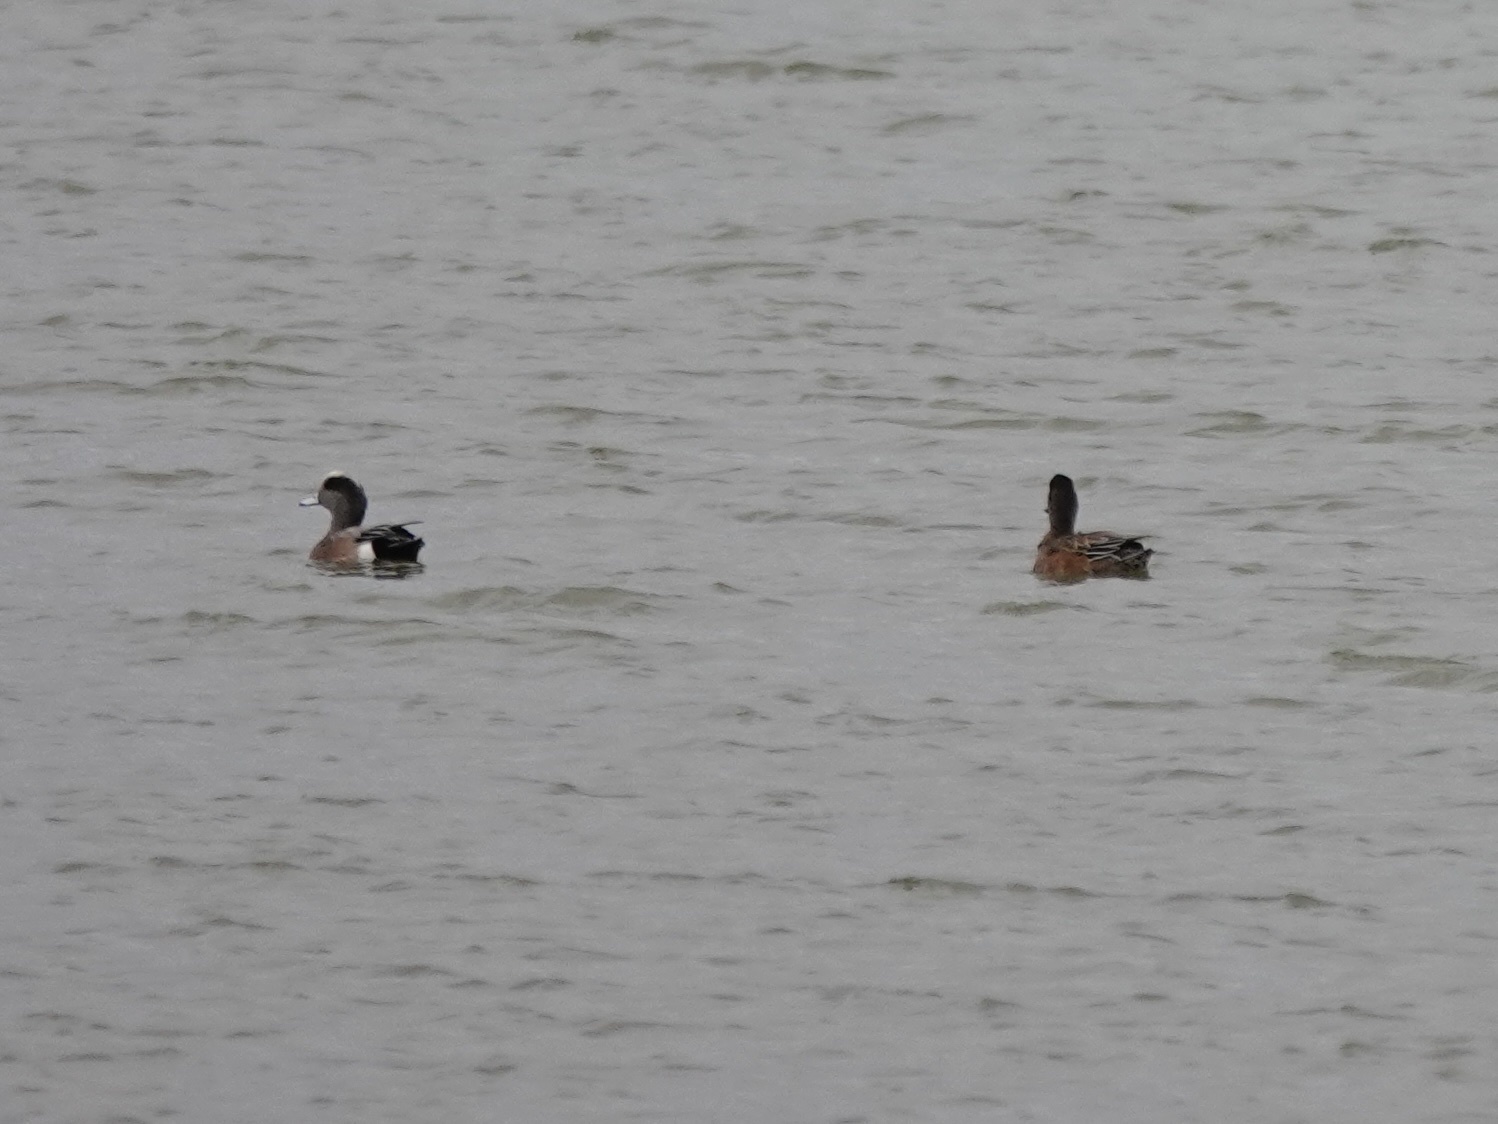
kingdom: Animalia
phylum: Chordata
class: Aves
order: Anseriformes
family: Anatidae
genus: Mareca
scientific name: Mareca americana
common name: American wigeon
